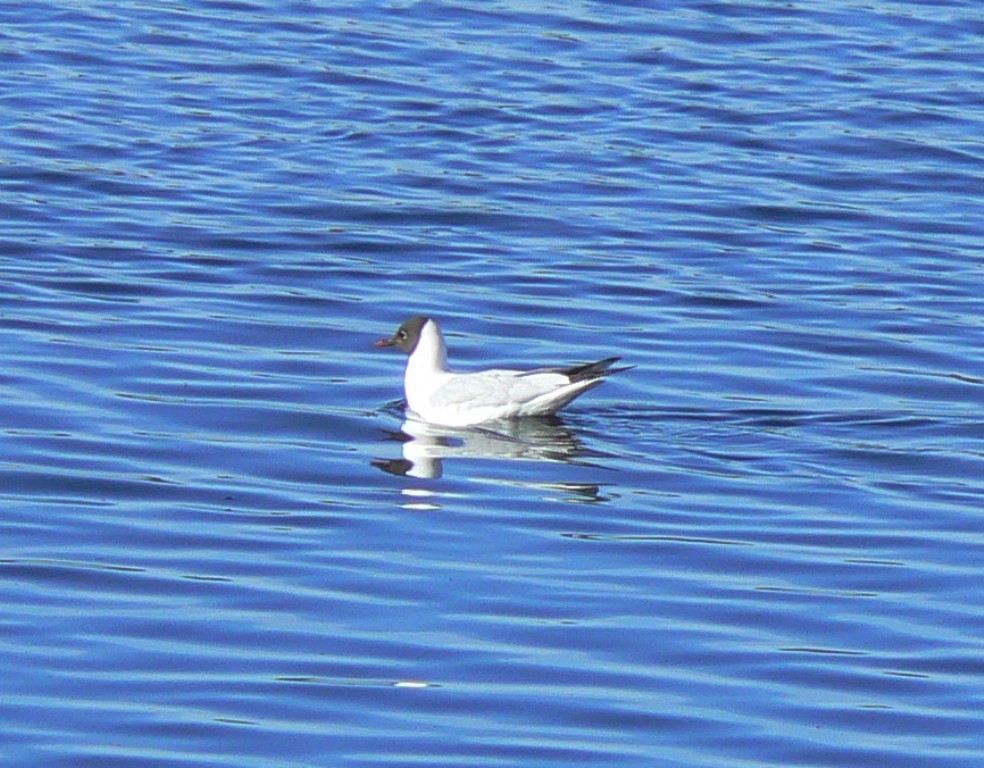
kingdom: Animalia
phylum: Chordata
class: Aves
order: Charadriiformes
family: Laridae
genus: Chroicocephalus
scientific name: Chroicocephalus ridibundus
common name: Black-headed gull
